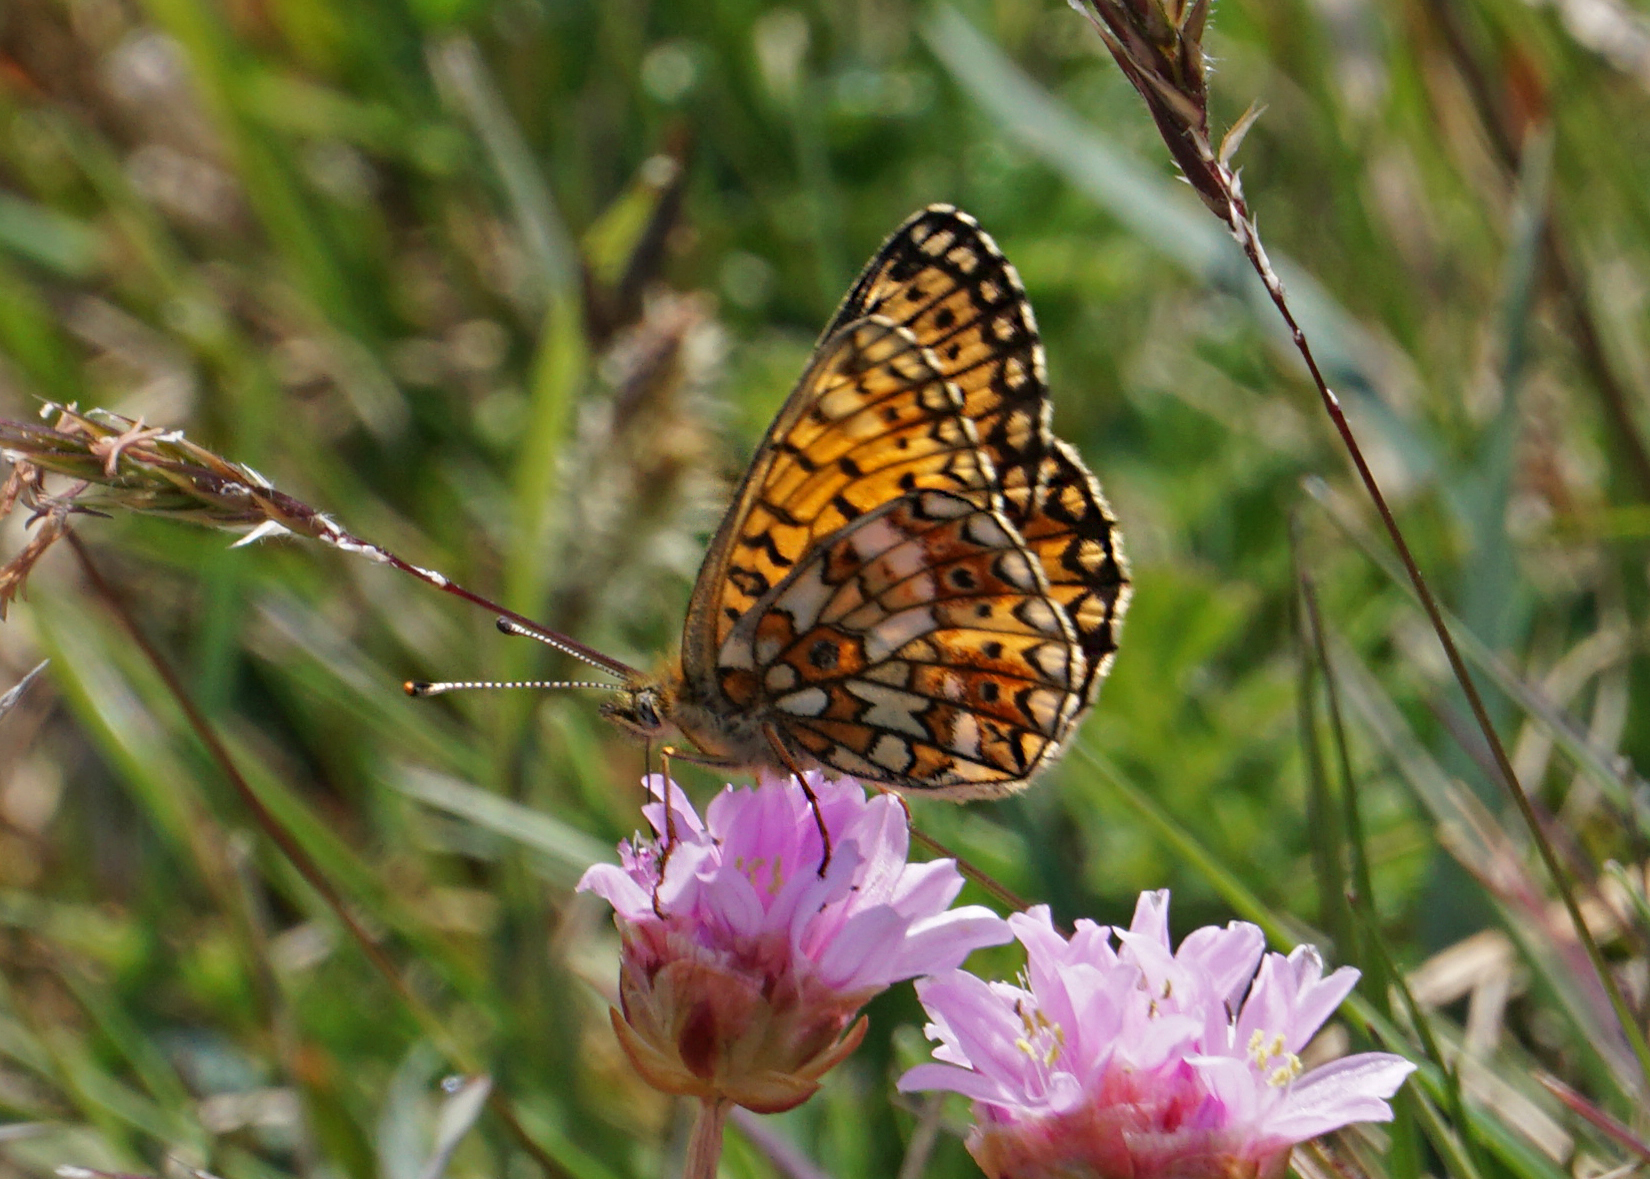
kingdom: Animalia
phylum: Arthropoda
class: Insecta
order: Lepidoptera
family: Nymphalidae
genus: Boloria
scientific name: Boloria selene
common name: Small pearl-bordered fritillary
